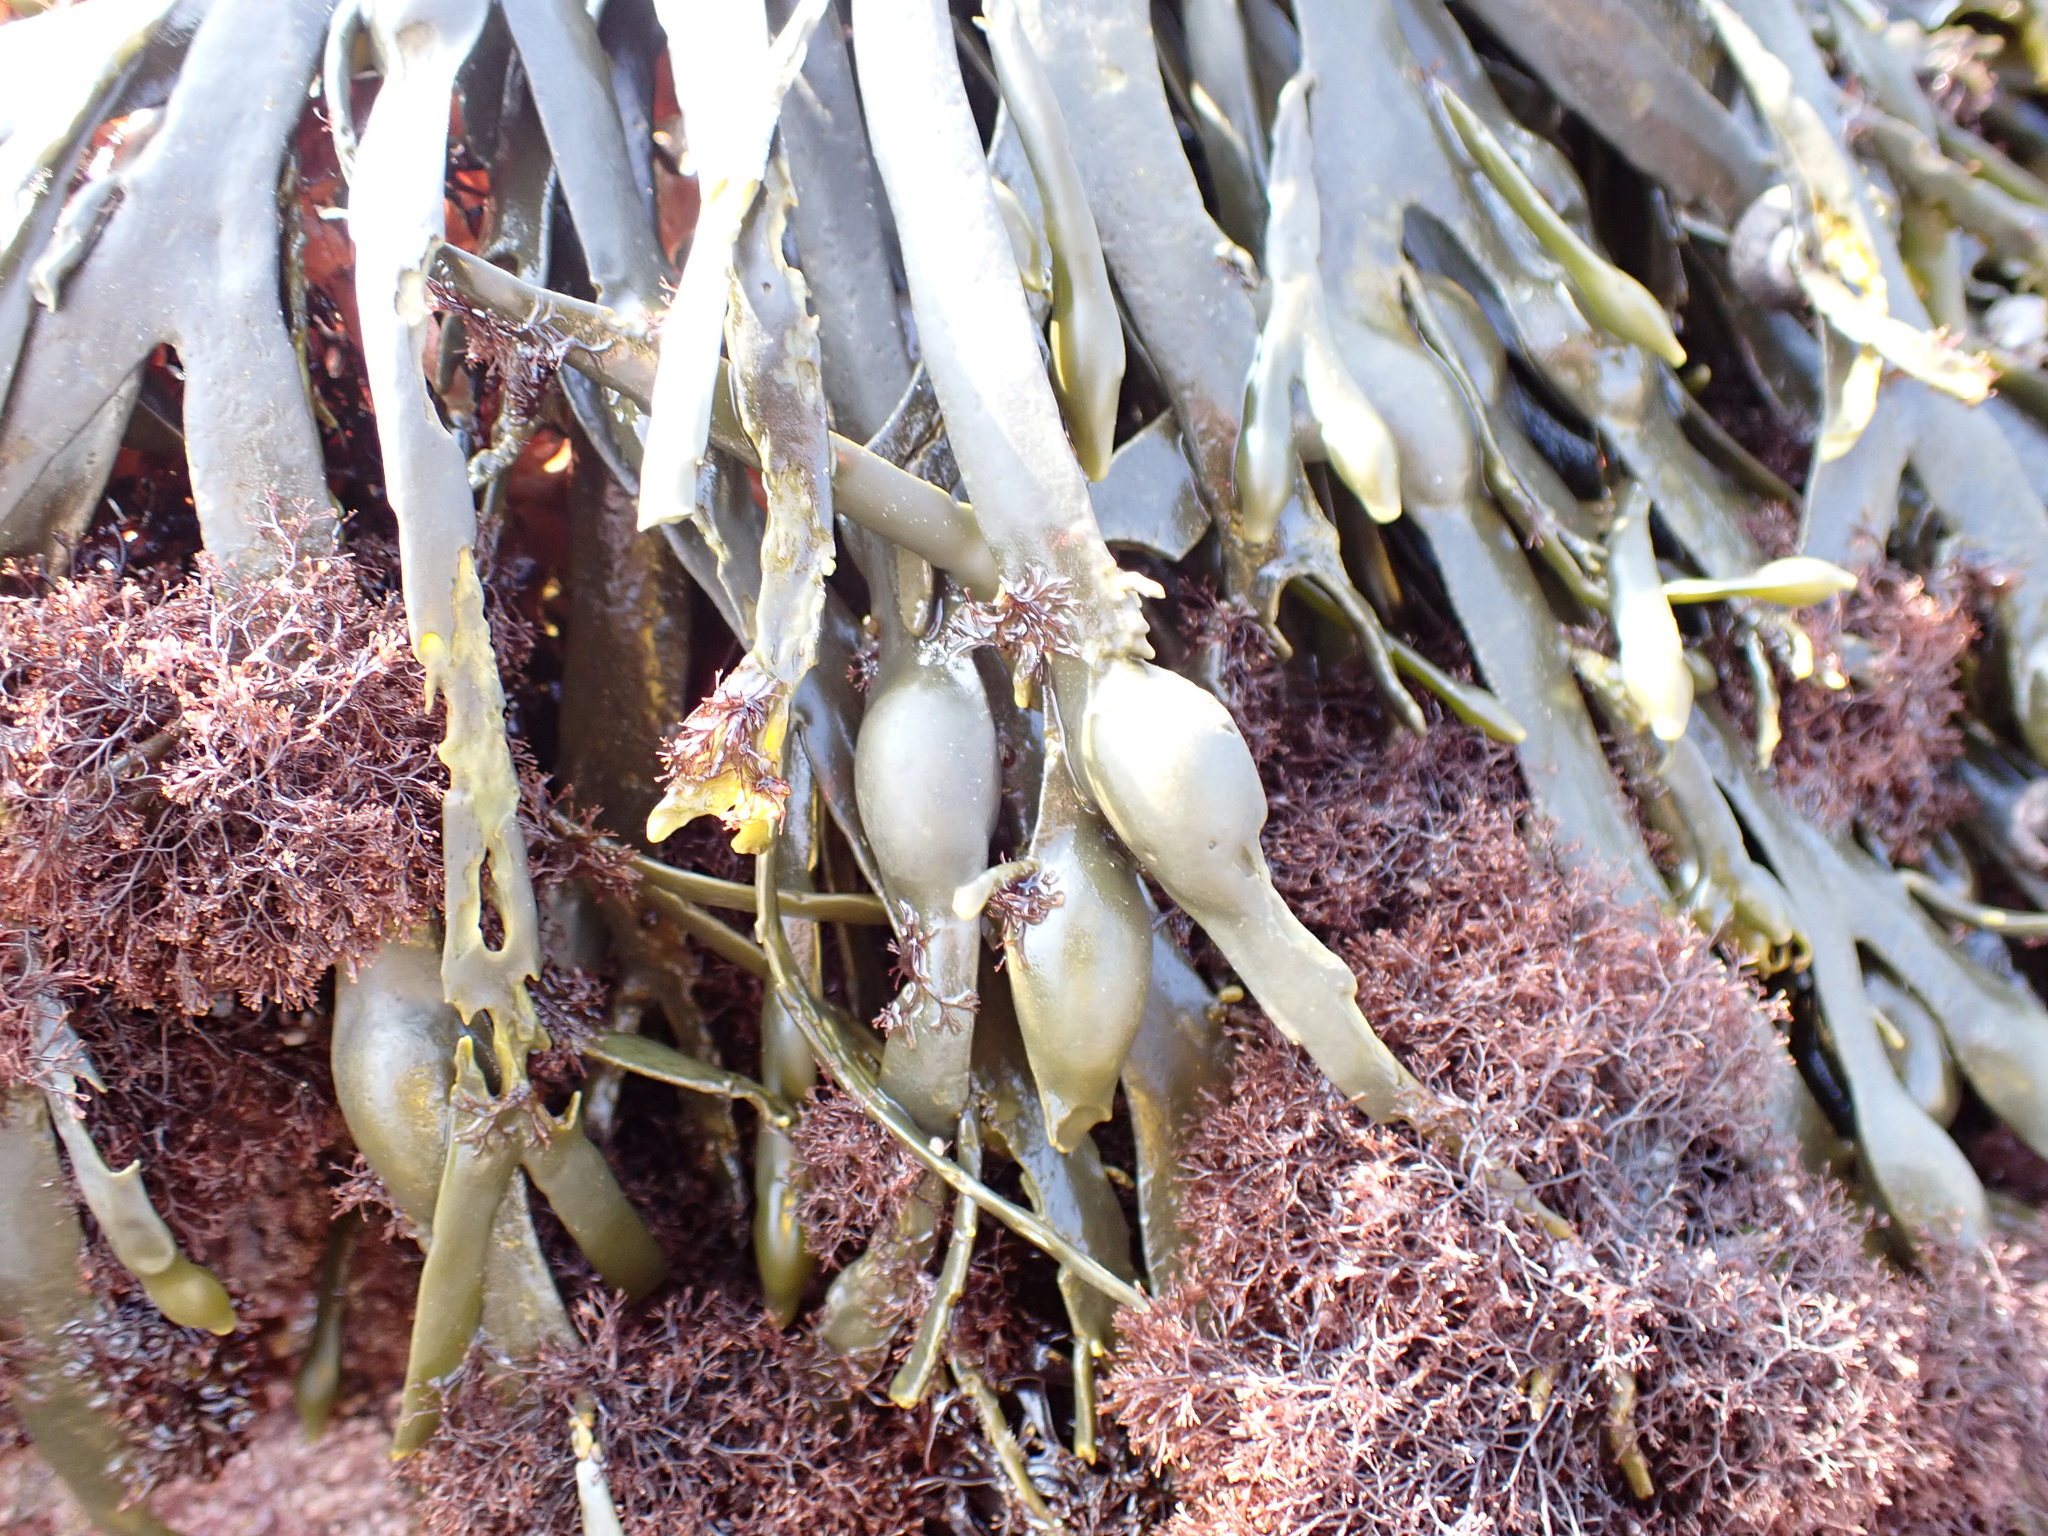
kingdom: Chromista
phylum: Ochrophyta
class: Phaeophyceae
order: Fucales
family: Fucaceae
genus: Ascophyllum
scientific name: Ascophyllum nodosum
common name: Knotted wrack
